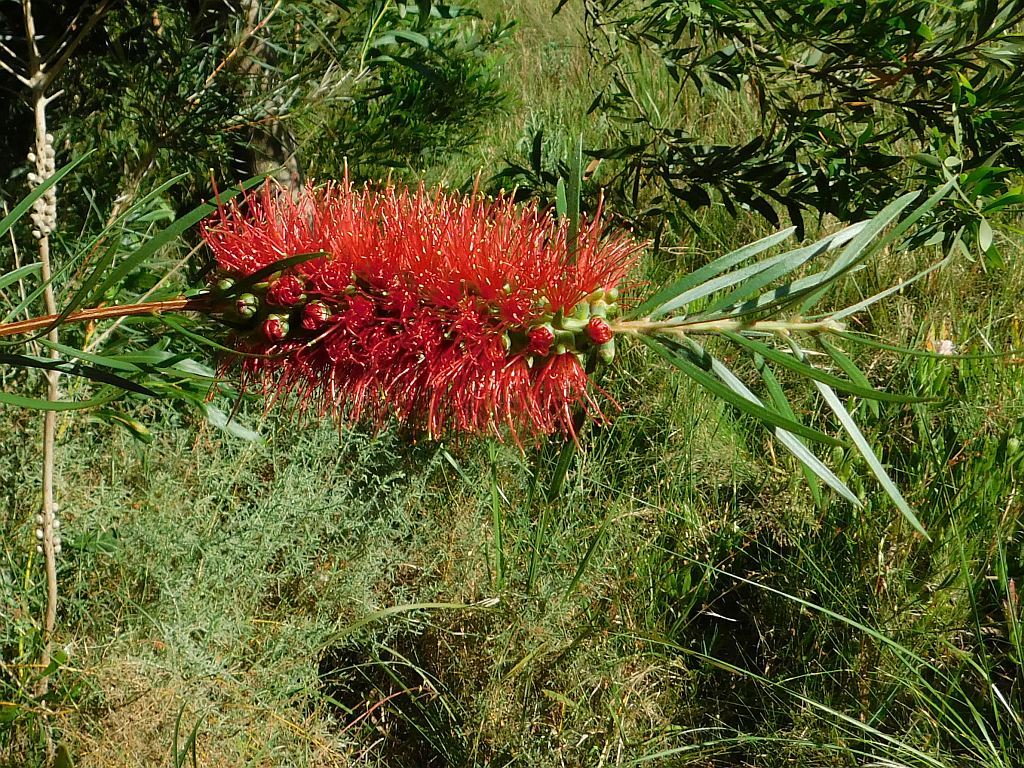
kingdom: Plantae
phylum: Tracheophyta
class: Magnoliopsida
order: Myrtales
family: Myrtaceae
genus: Callistemon
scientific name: Callistemon linearis
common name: Narrow-leaf bottlebrush
